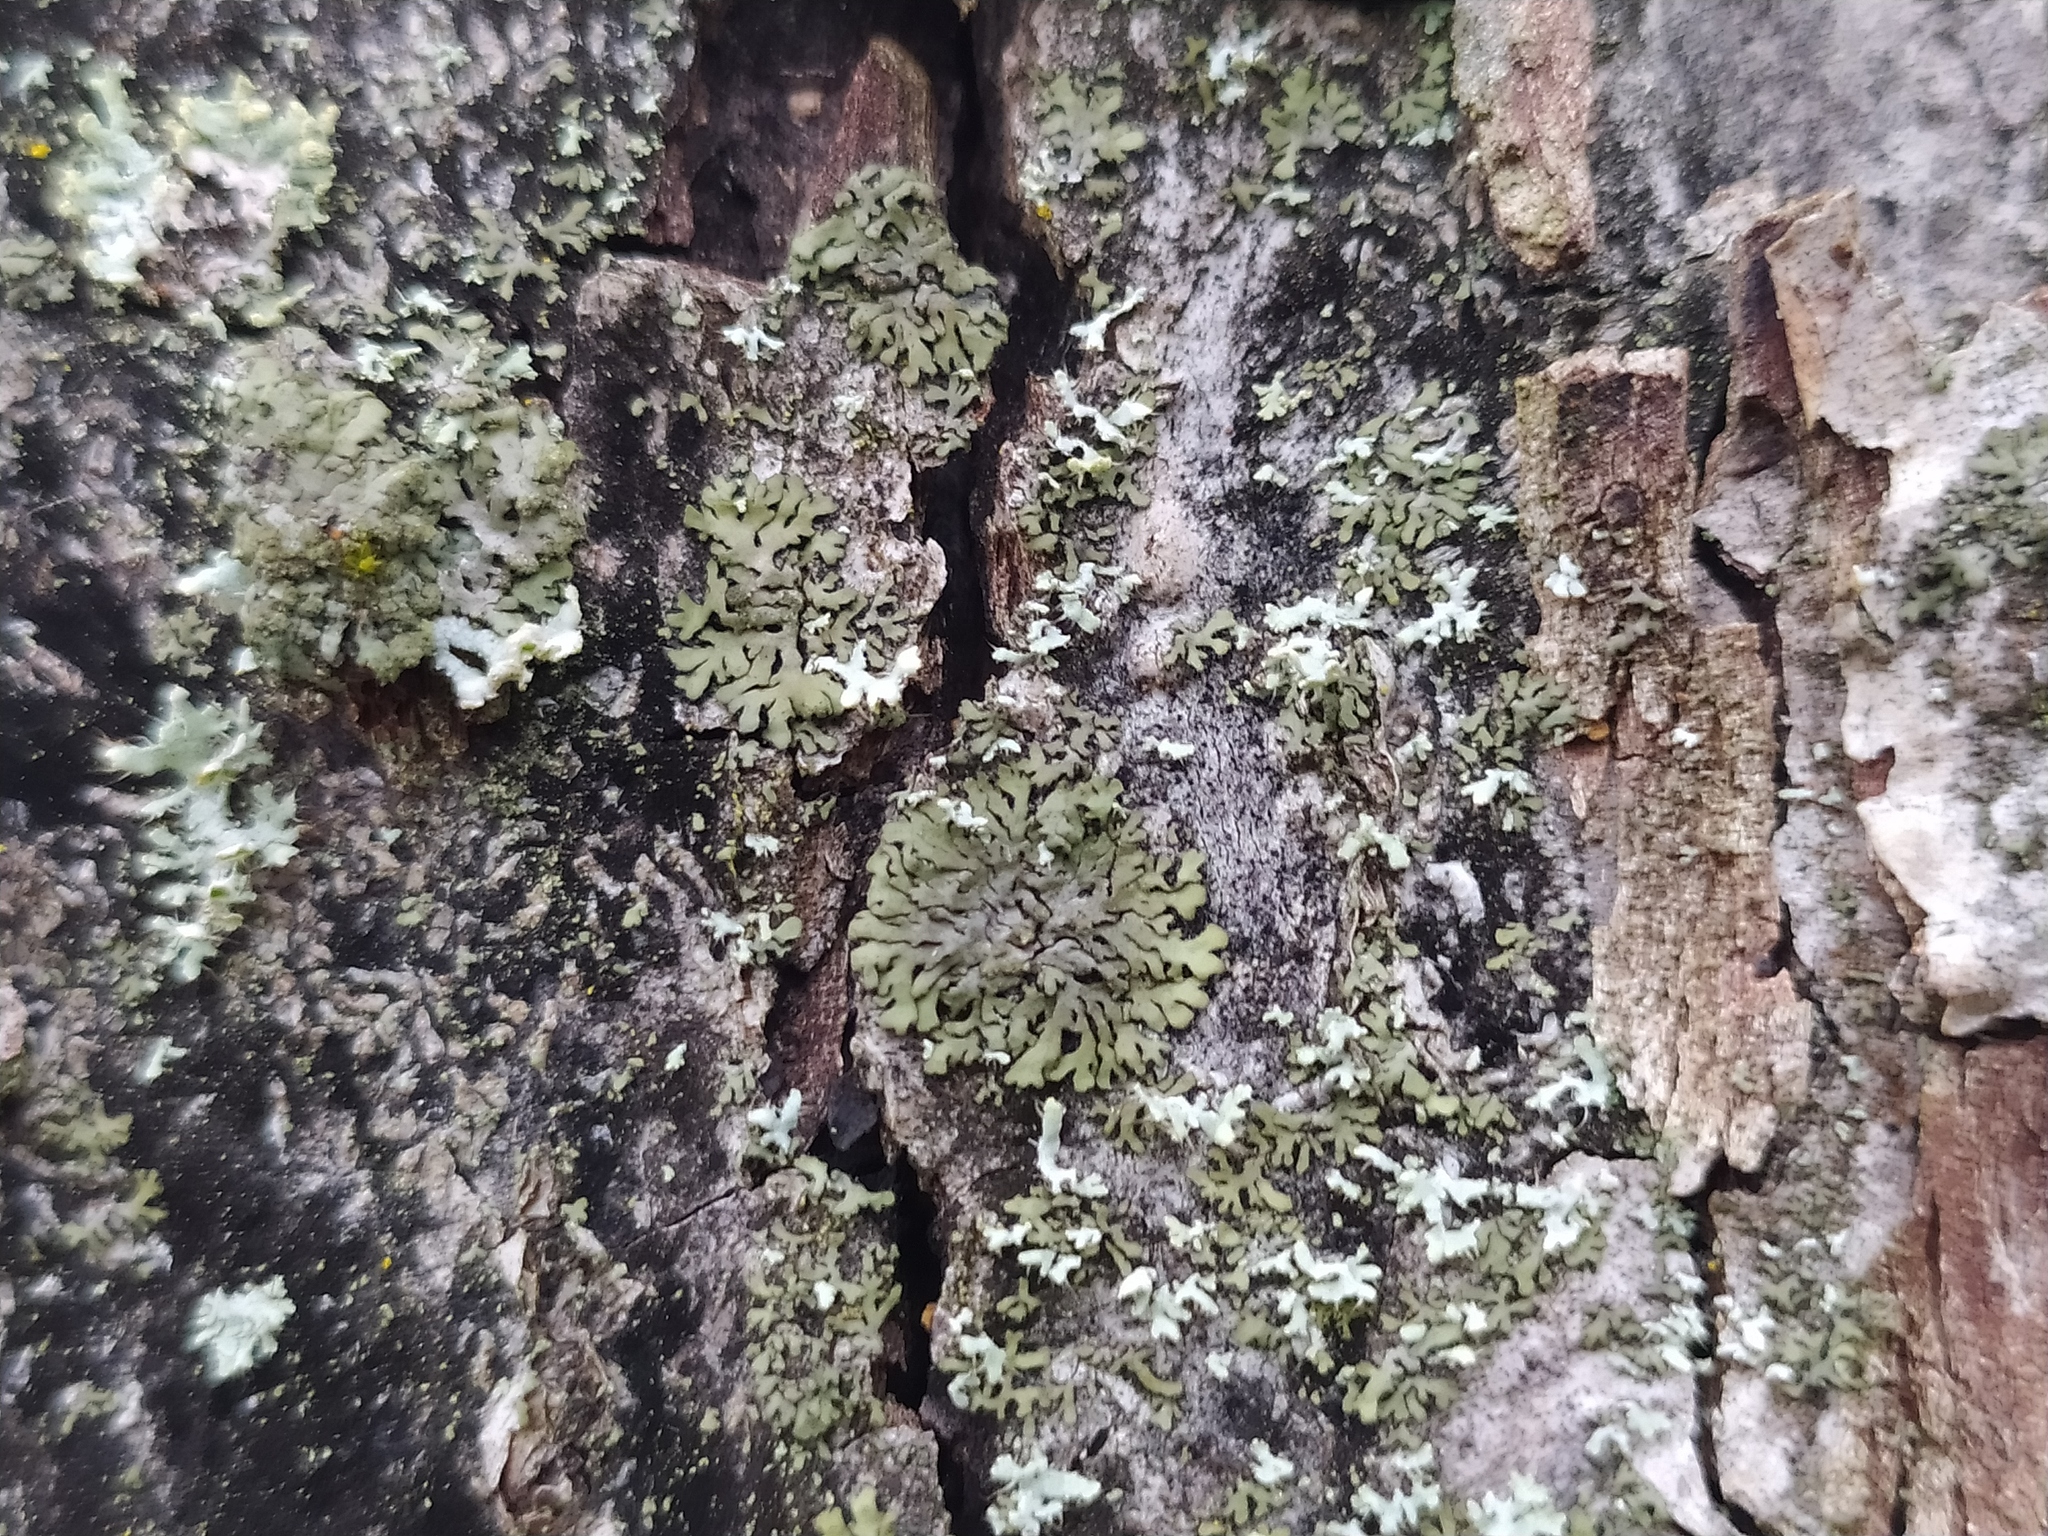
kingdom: Fungi
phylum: Ascomycota
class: Lecanoromycetes
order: Caliciales
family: Physciaceae
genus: Phaeophyscia
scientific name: Phaeophyscia orbicularis
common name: Mealy shadow lichen
